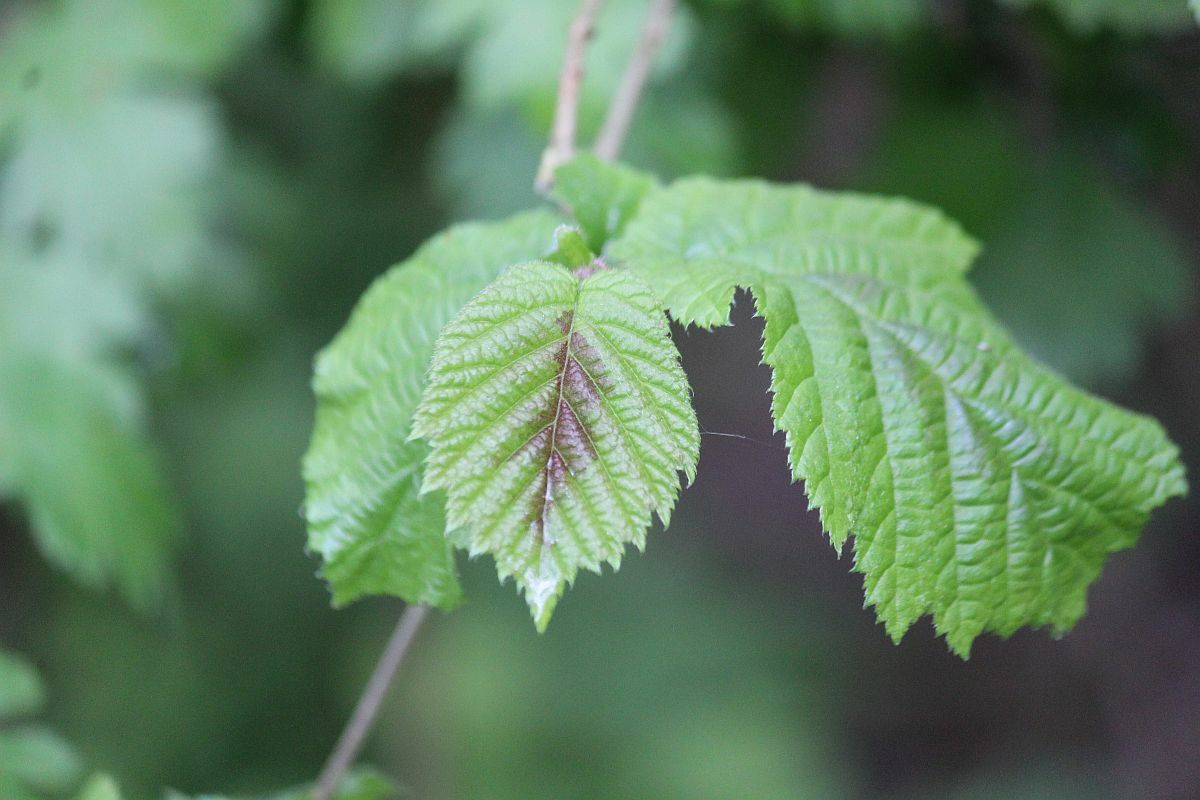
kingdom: Plantae
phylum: Tracheophyta
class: Magnoliopsida
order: Fagales
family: Betulaceae
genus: Corylus
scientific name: Corylus avellana
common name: European hazel
